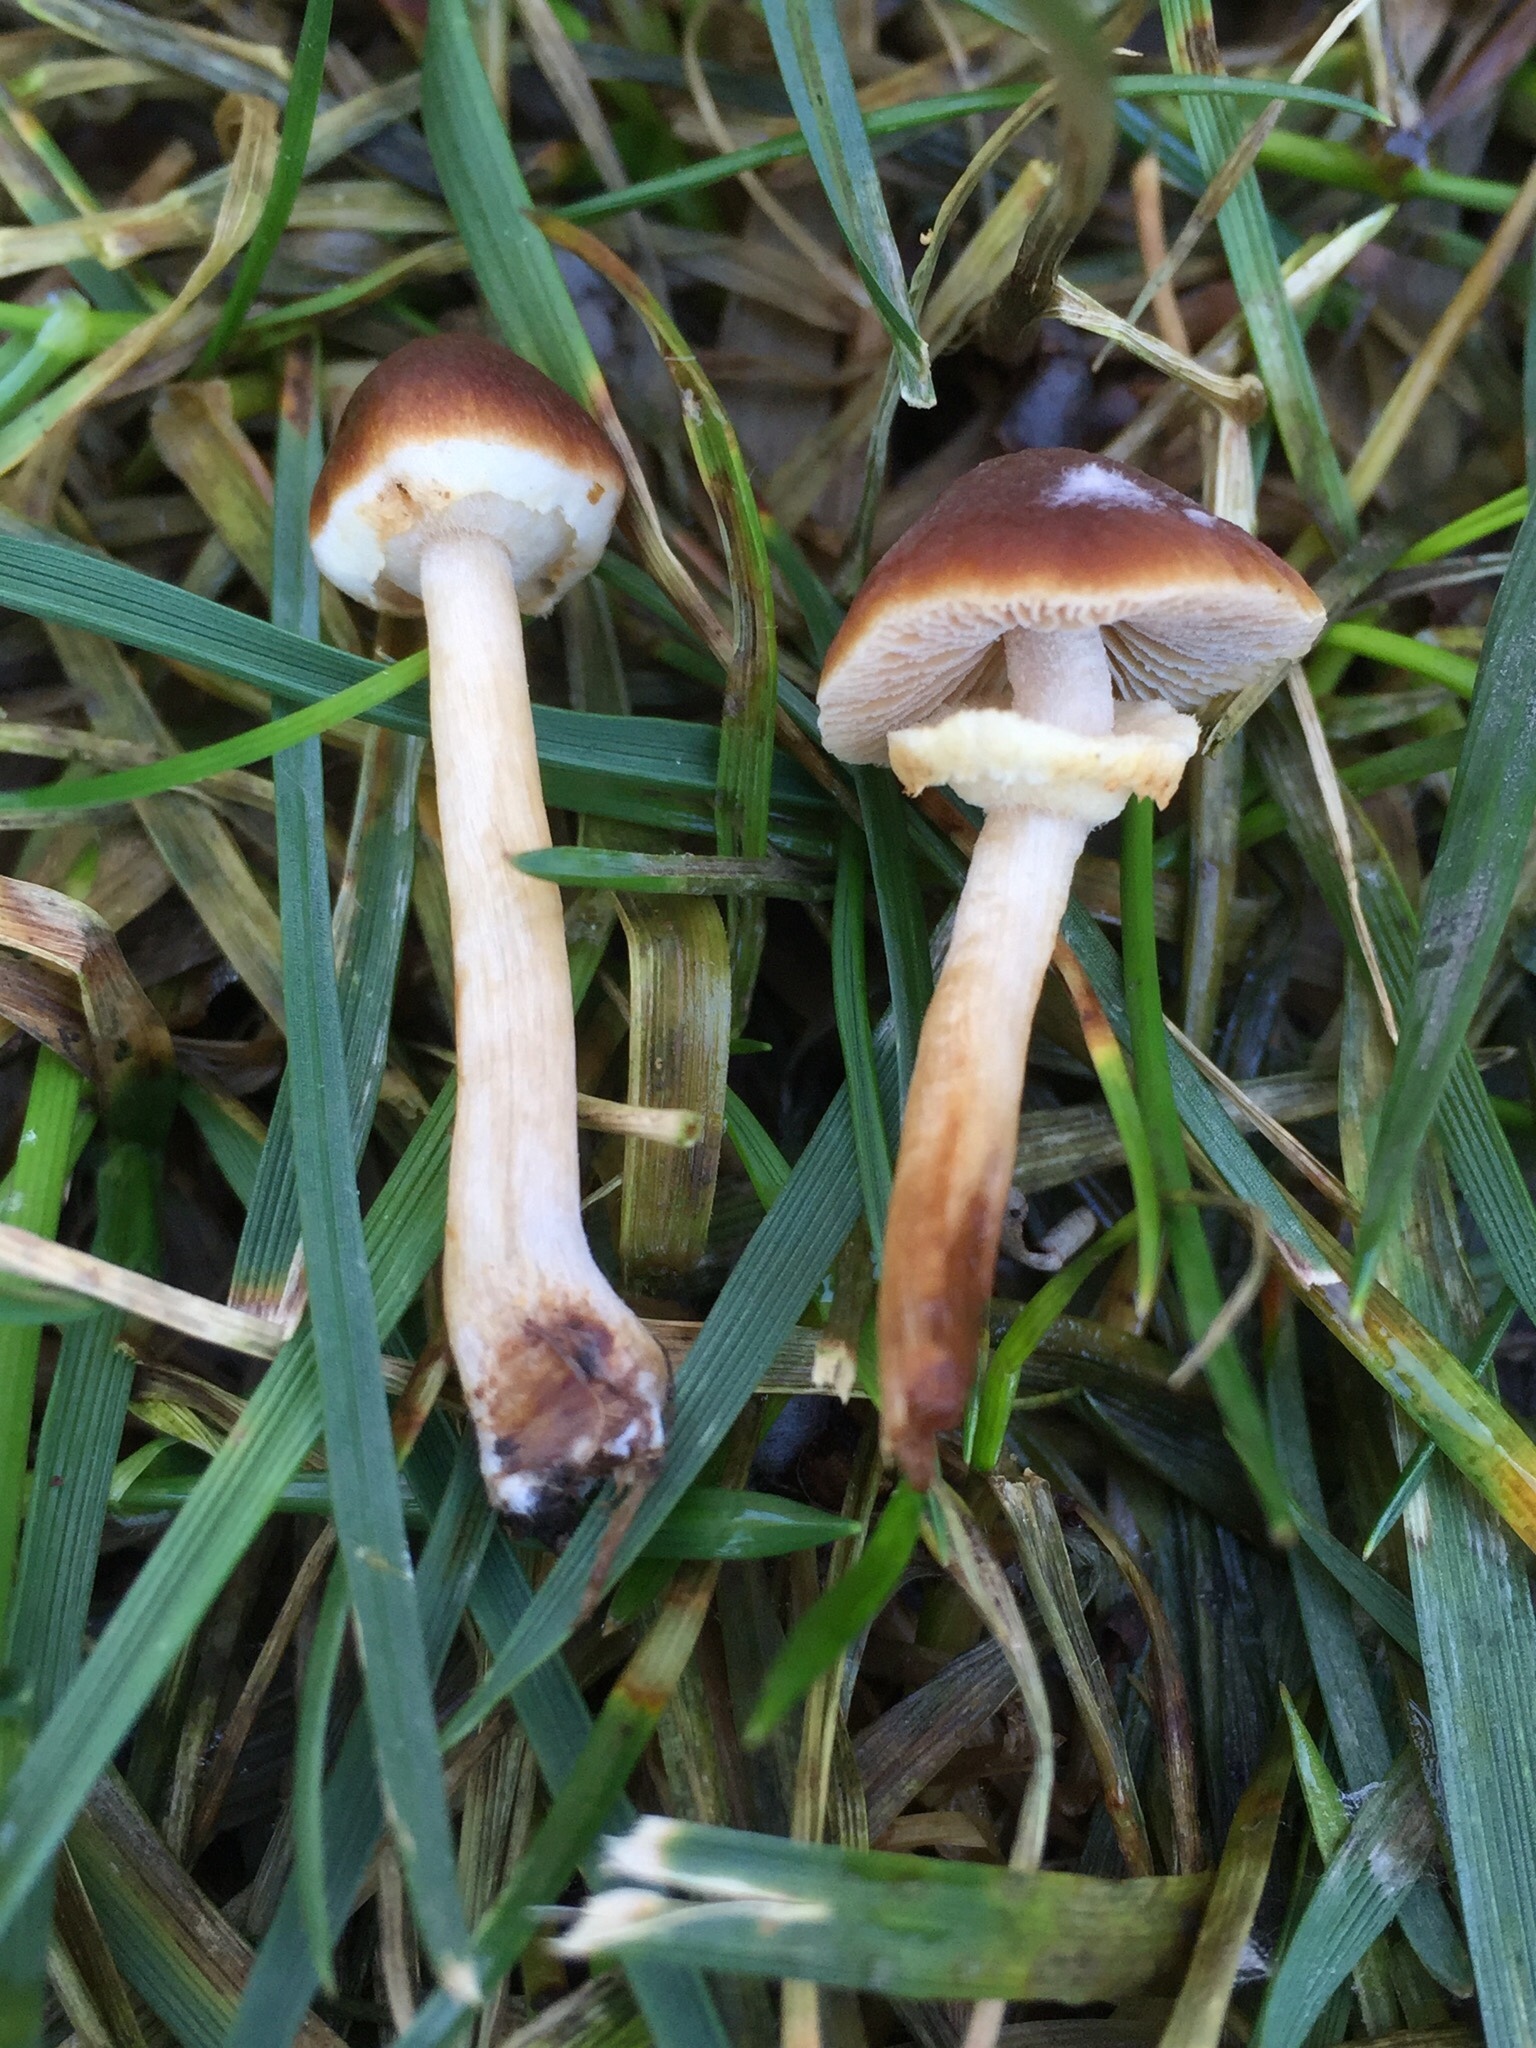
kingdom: Fungi
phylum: Basidiomycota
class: Agaricomycetes
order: Agaricales
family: Psathyrellaceae
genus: Psathyrella
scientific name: Psathyrella longistriata
